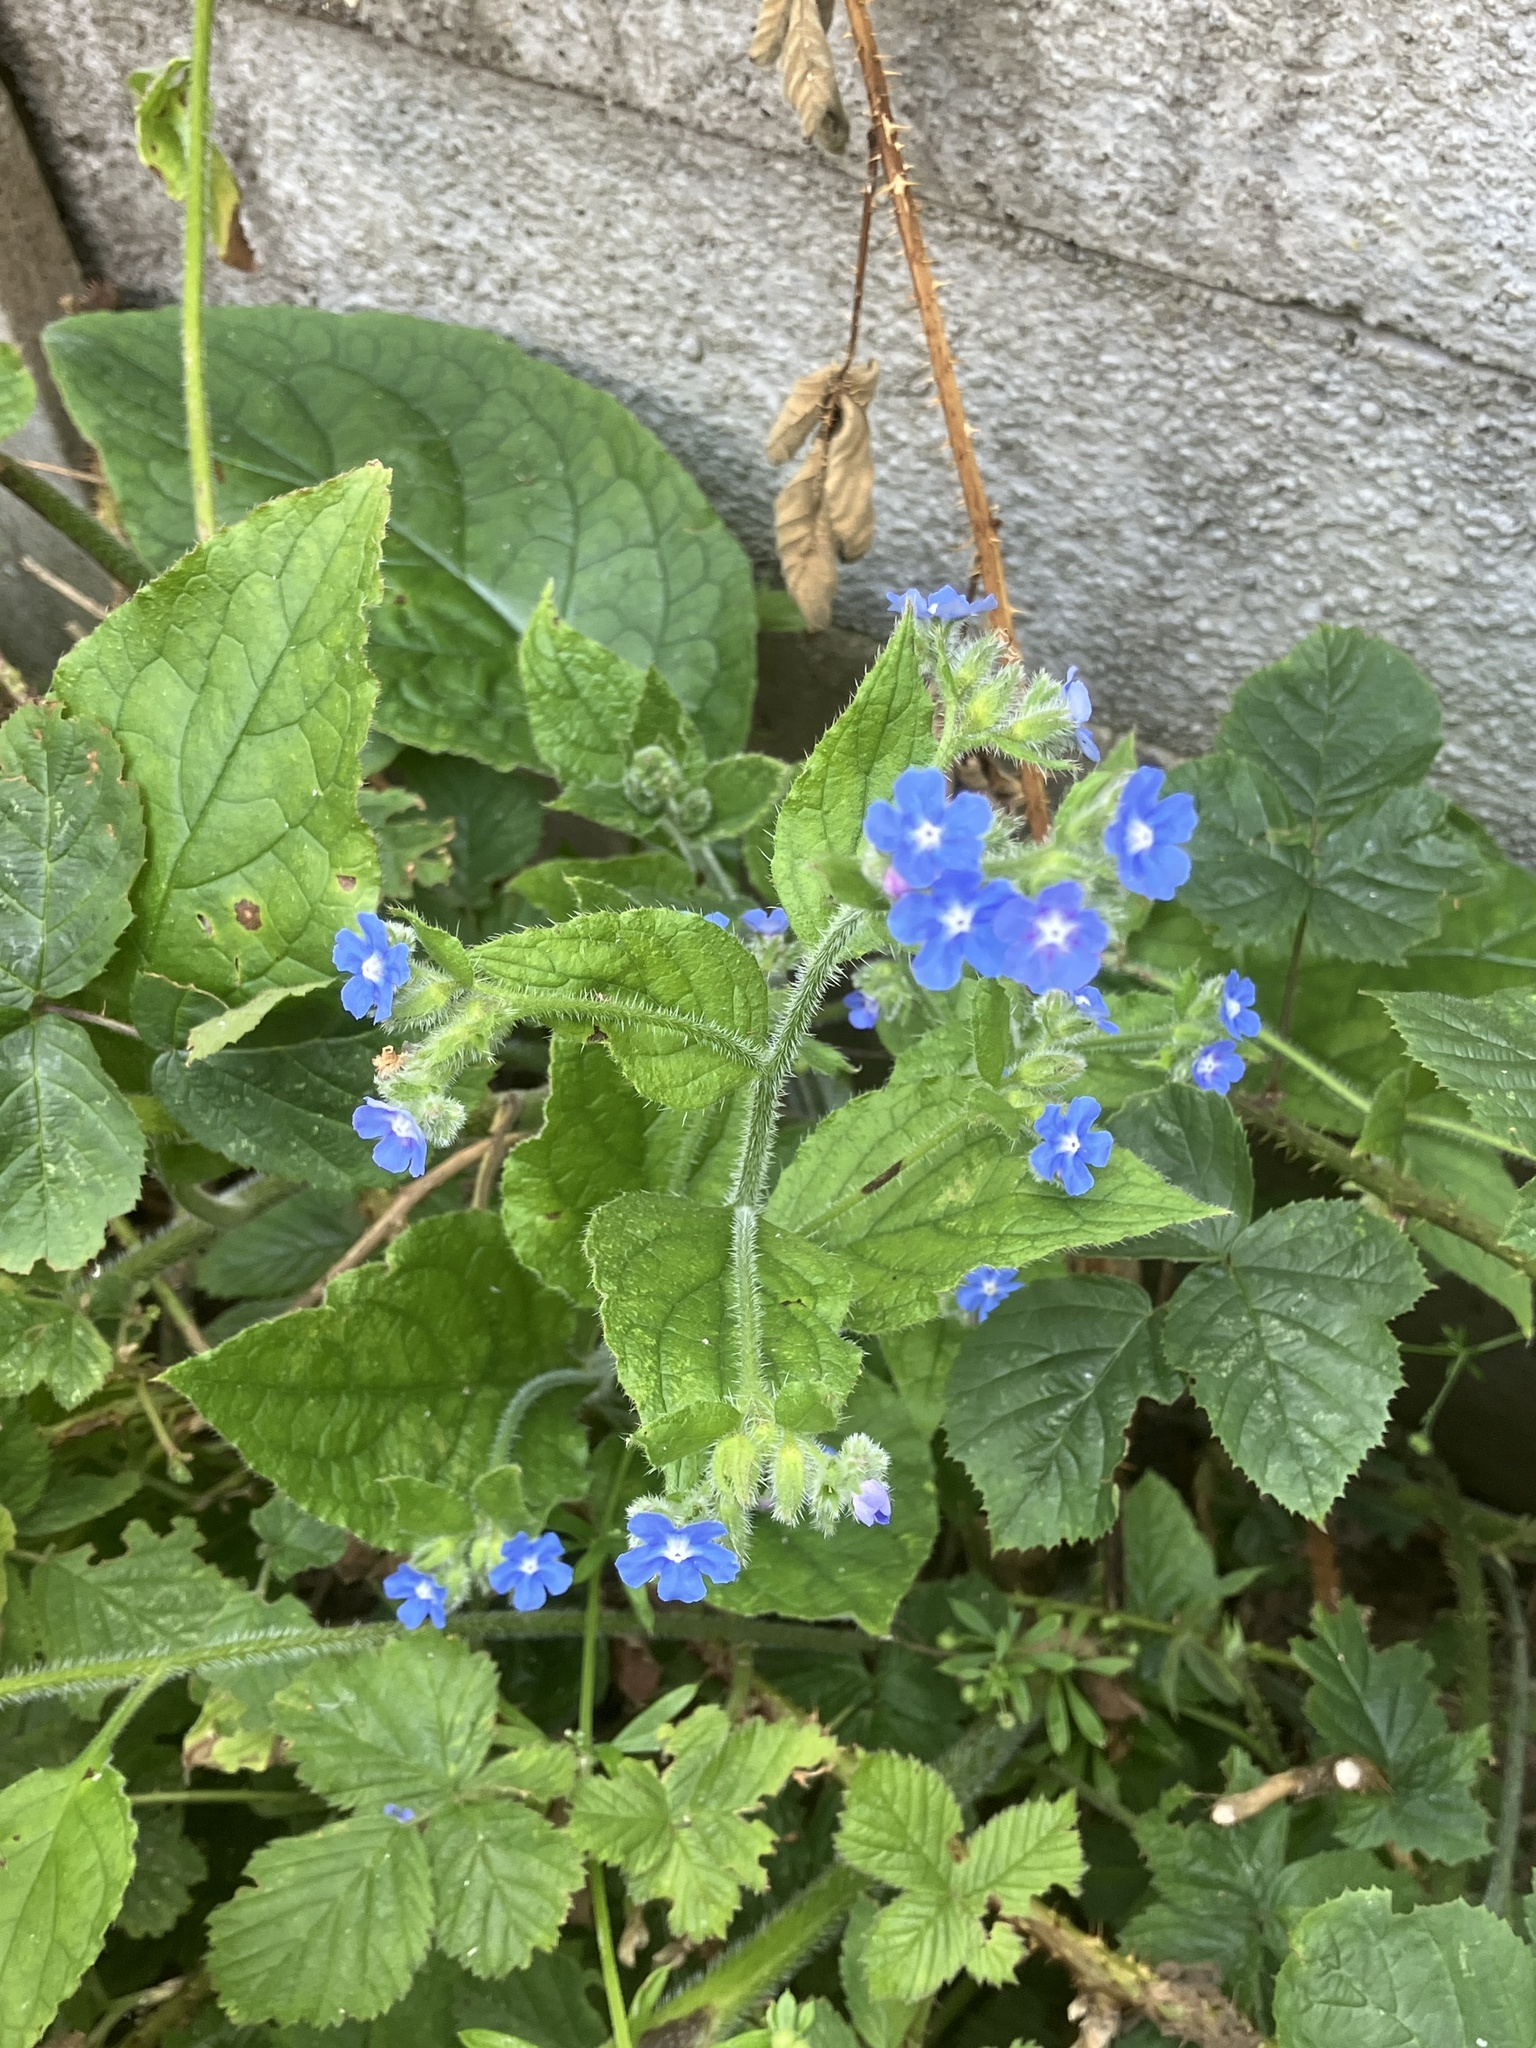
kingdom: Plantae
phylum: Tracheophyta
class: Magnoliopsida
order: Boraginales
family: Boraginaceae
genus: Pentaglottis
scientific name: Pentaglottis sempervirens
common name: Green alkanet
